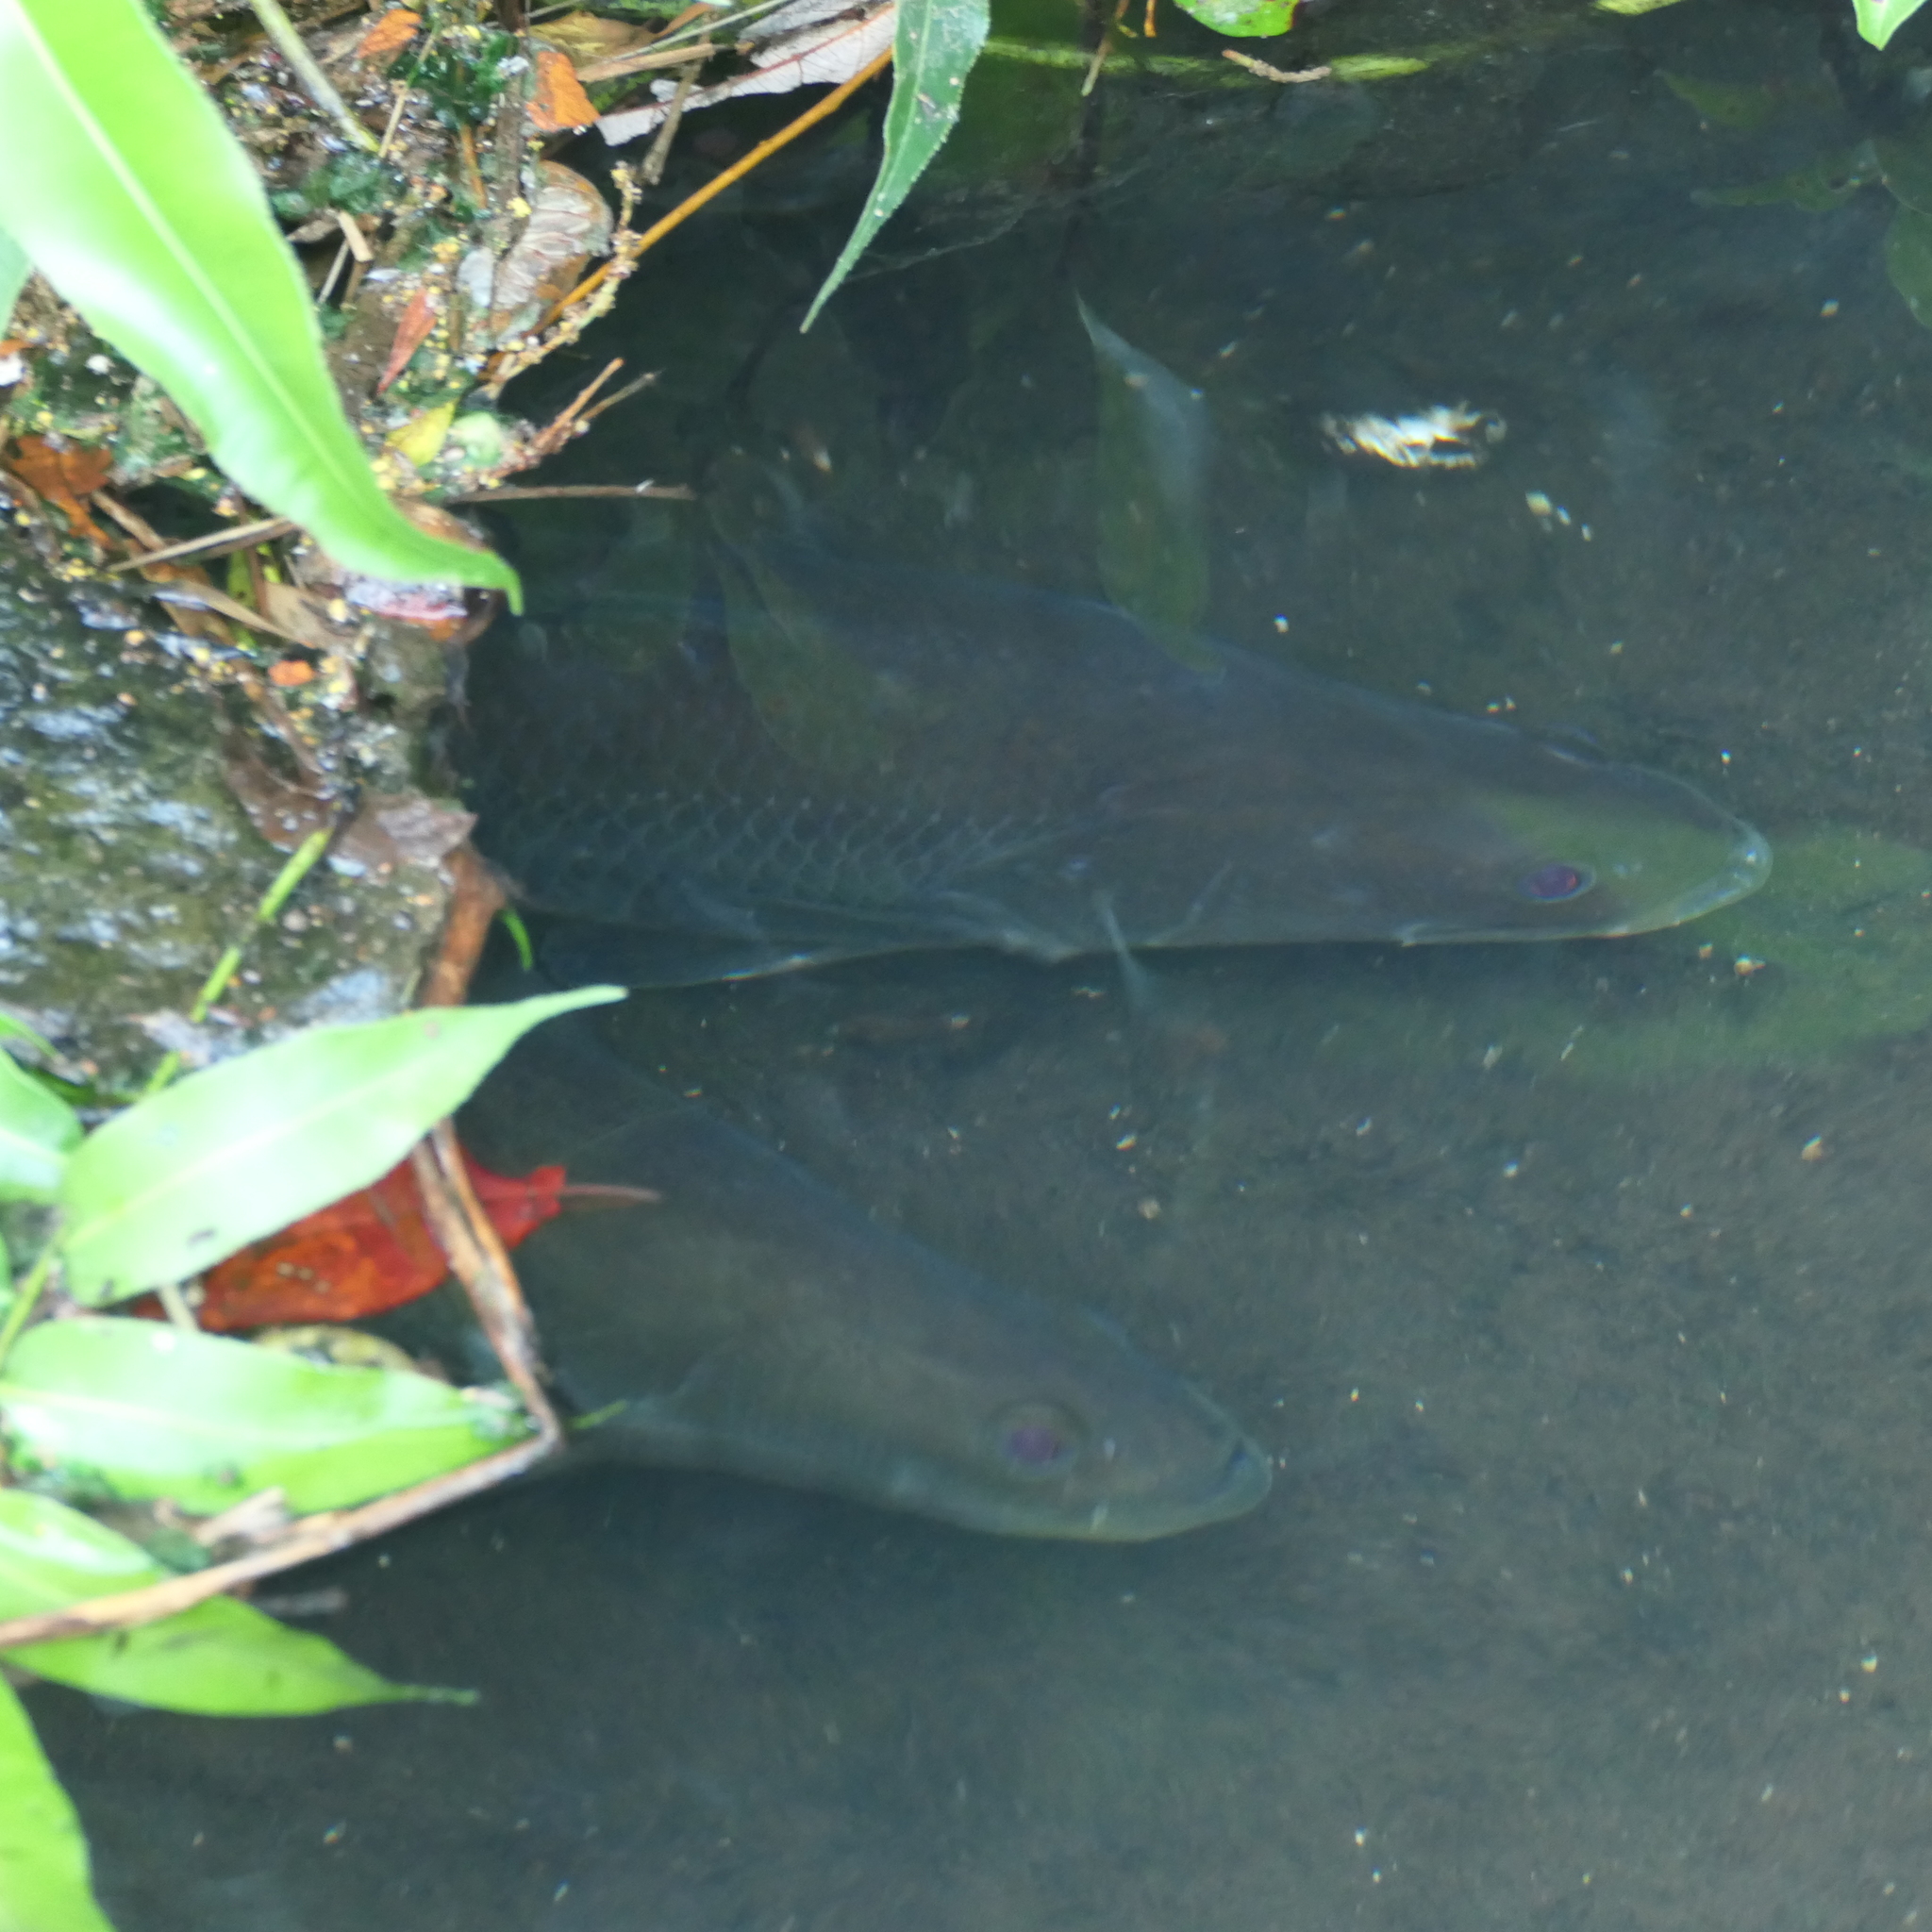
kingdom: Animalia
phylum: Chordata
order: Perciformes
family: Latidae
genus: Lates
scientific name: Lates calcarifer
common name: Barramundi
